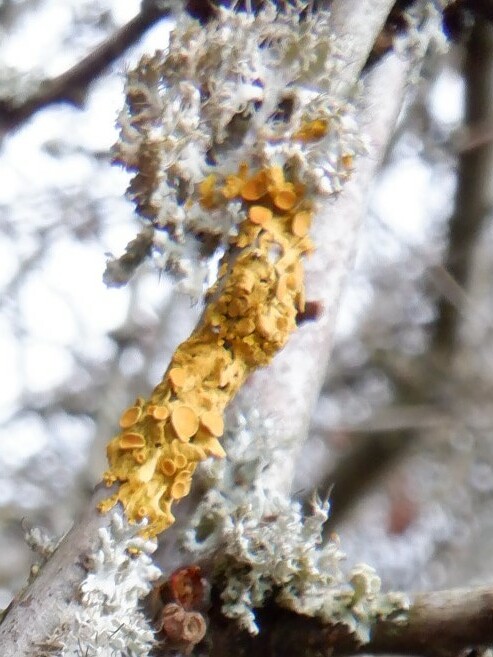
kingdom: Fungi
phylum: Ascomycota
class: Lecanoromycetes
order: Teloschistales
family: Teloschistaceae
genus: Xanthoria
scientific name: Xanthoria parietina
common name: Common orange lichen
